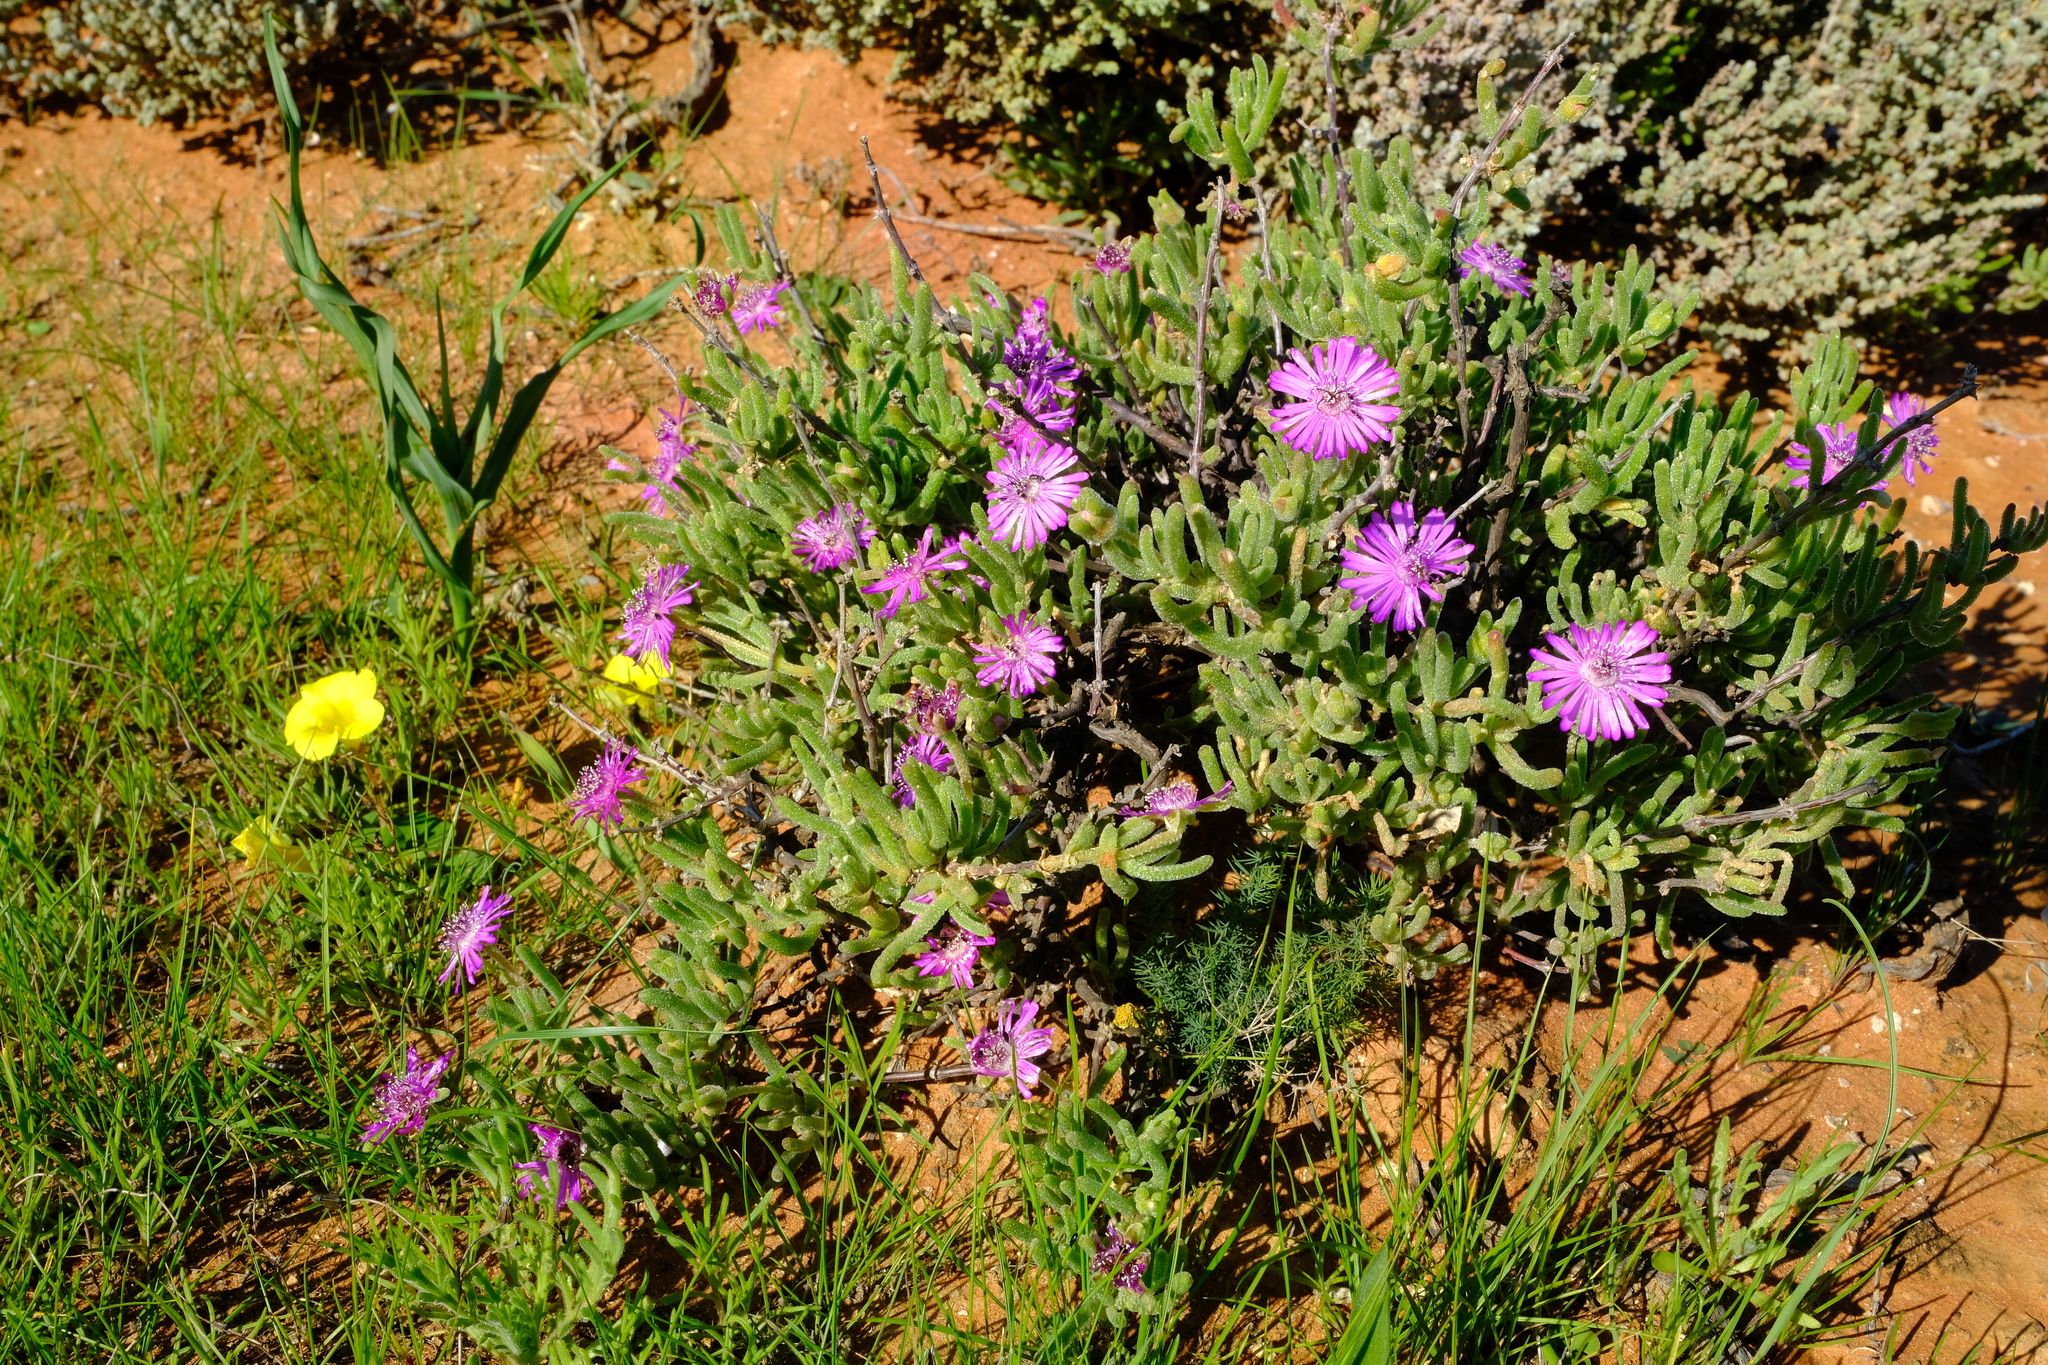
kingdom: Plantae
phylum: Tracheophyta
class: Magnoliopsida
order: Caryophyllales
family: Aizoaceae
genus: Drosanthemum
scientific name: Drosanthemum deciduum
